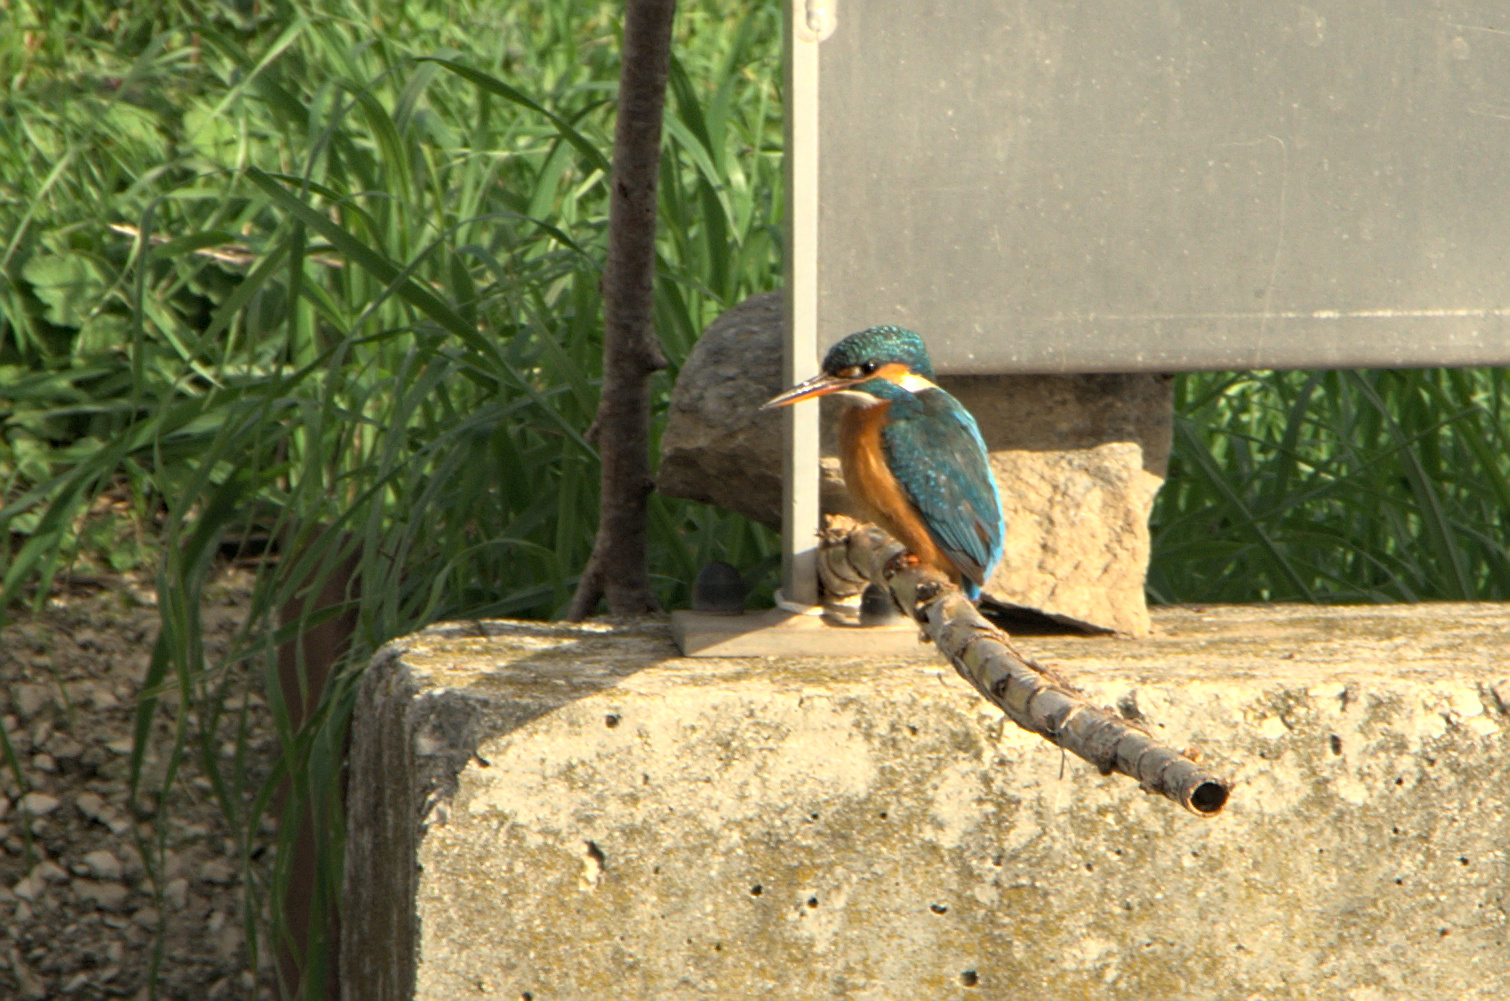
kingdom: Animalia
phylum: Chordata
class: Aves
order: Coraciiformes
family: Alcedinidae
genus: Alcedo
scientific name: Alcedo atthis
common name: Common kingfisher
